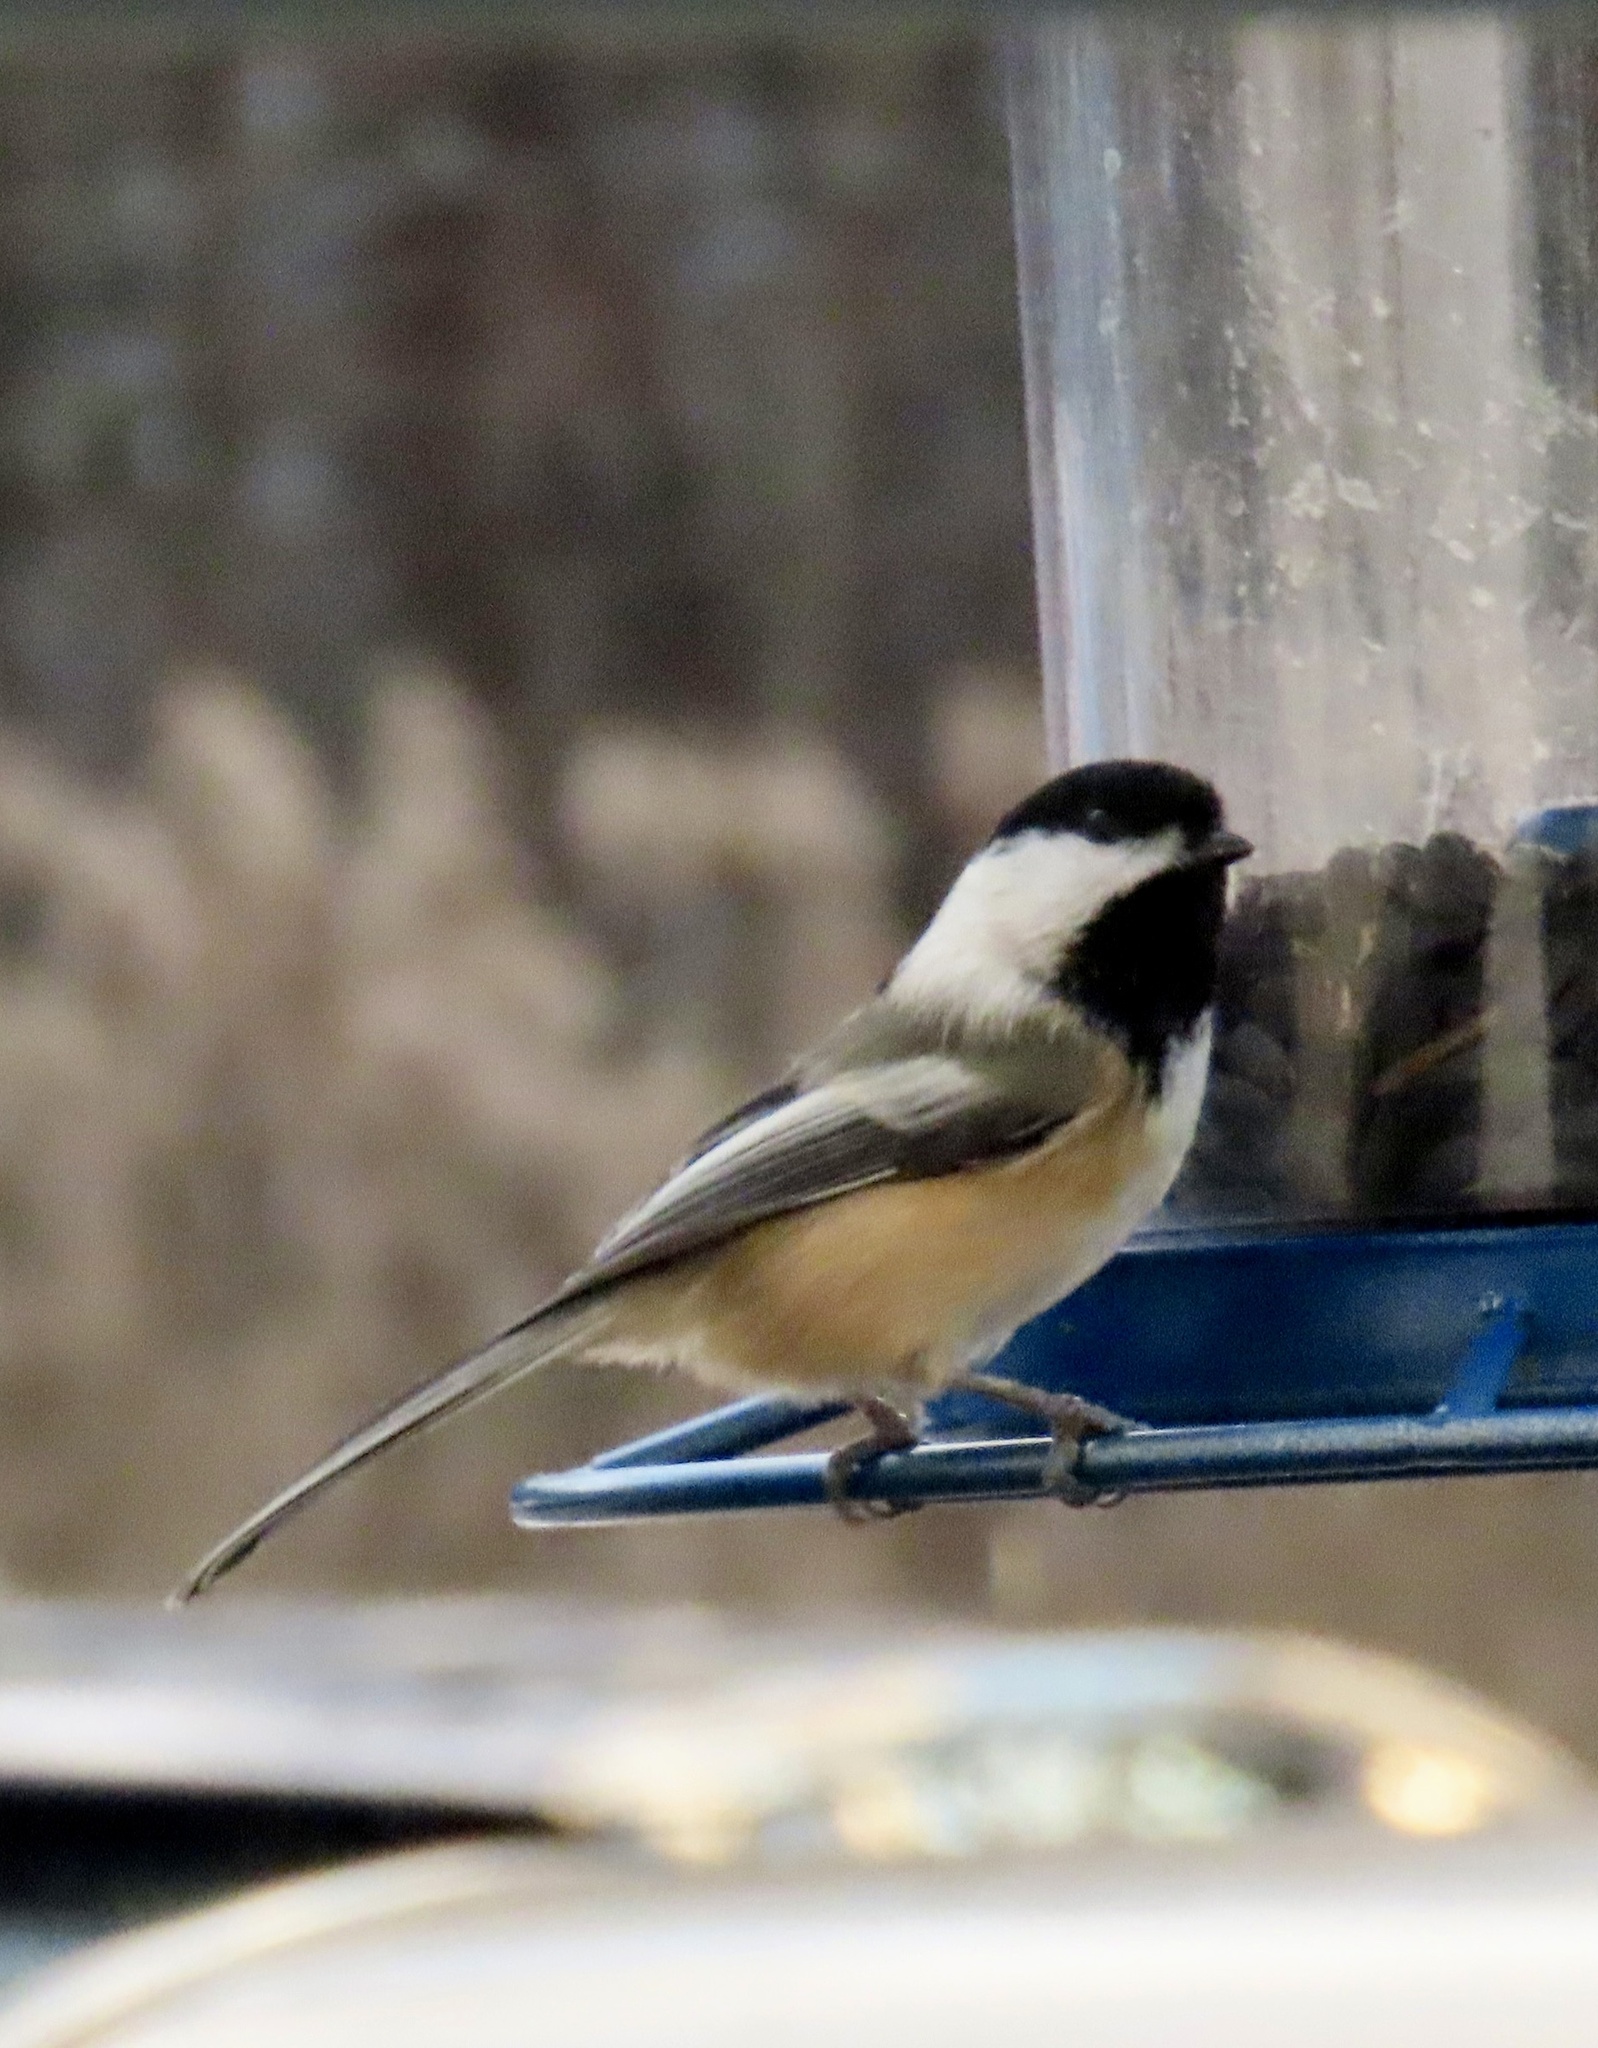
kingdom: Animalia
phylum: Chordata
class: Aves
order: Passeriformes
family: Paridae
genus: Poecile
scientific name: Poecile atricapillus
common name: Black-capped chickadee
